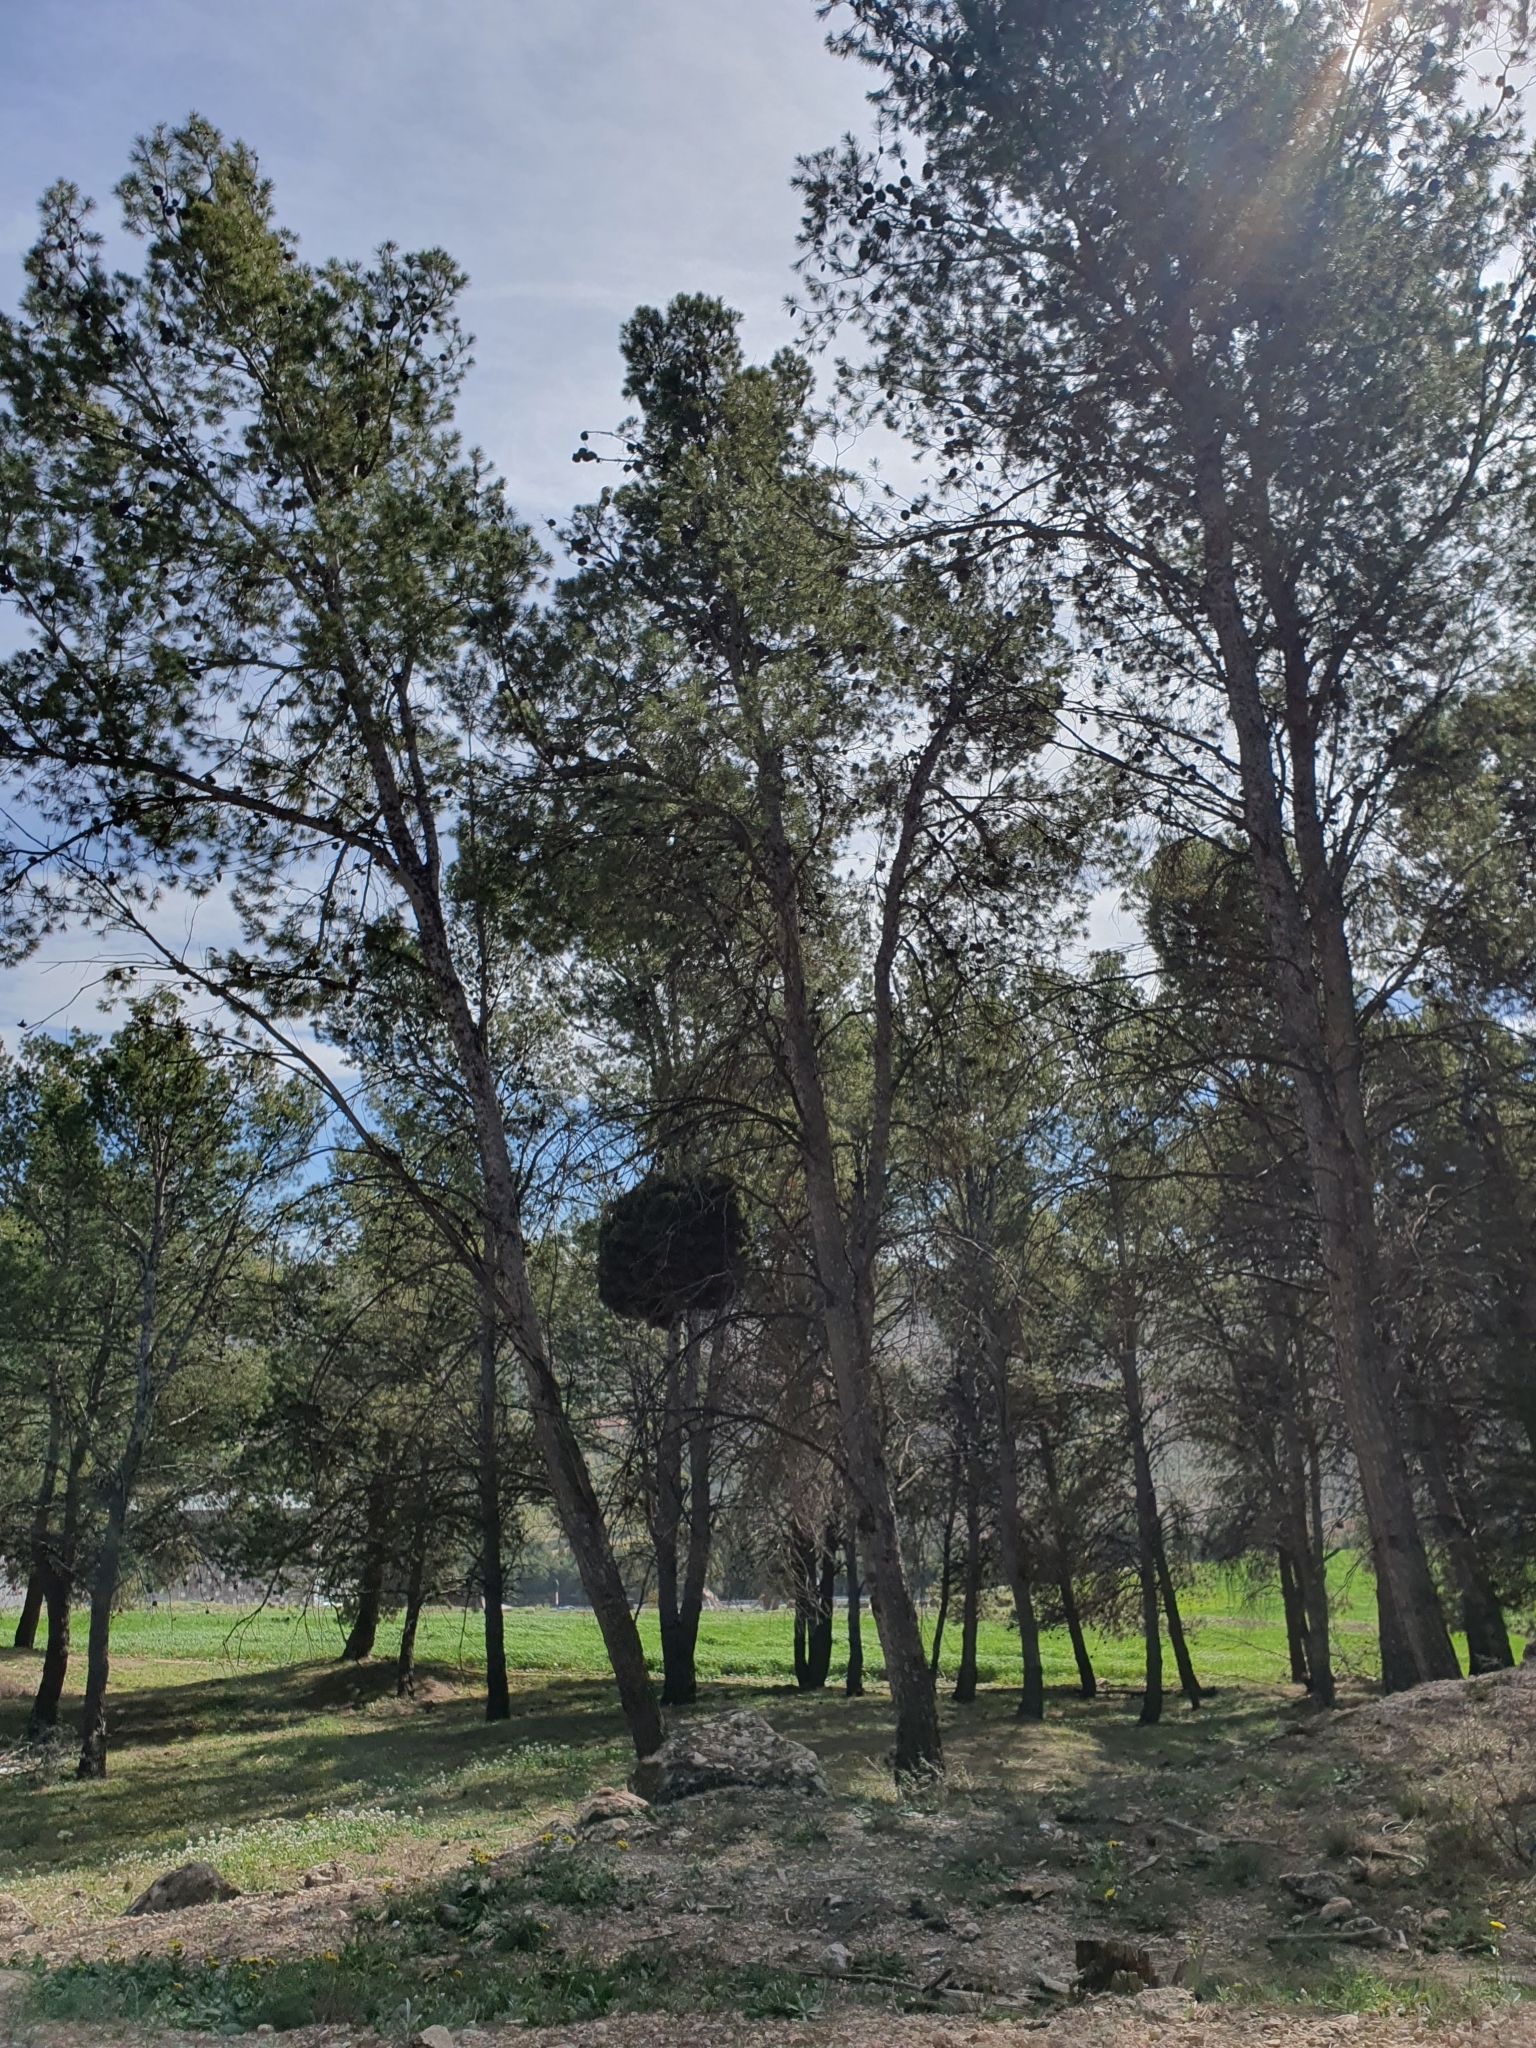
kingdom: Bacteria
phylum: Firmicutes
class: Bacilli
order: Acholeplasmatales
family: Acholeplasmataceae
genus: Phytoplasma
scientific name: Phytoplasma pini
